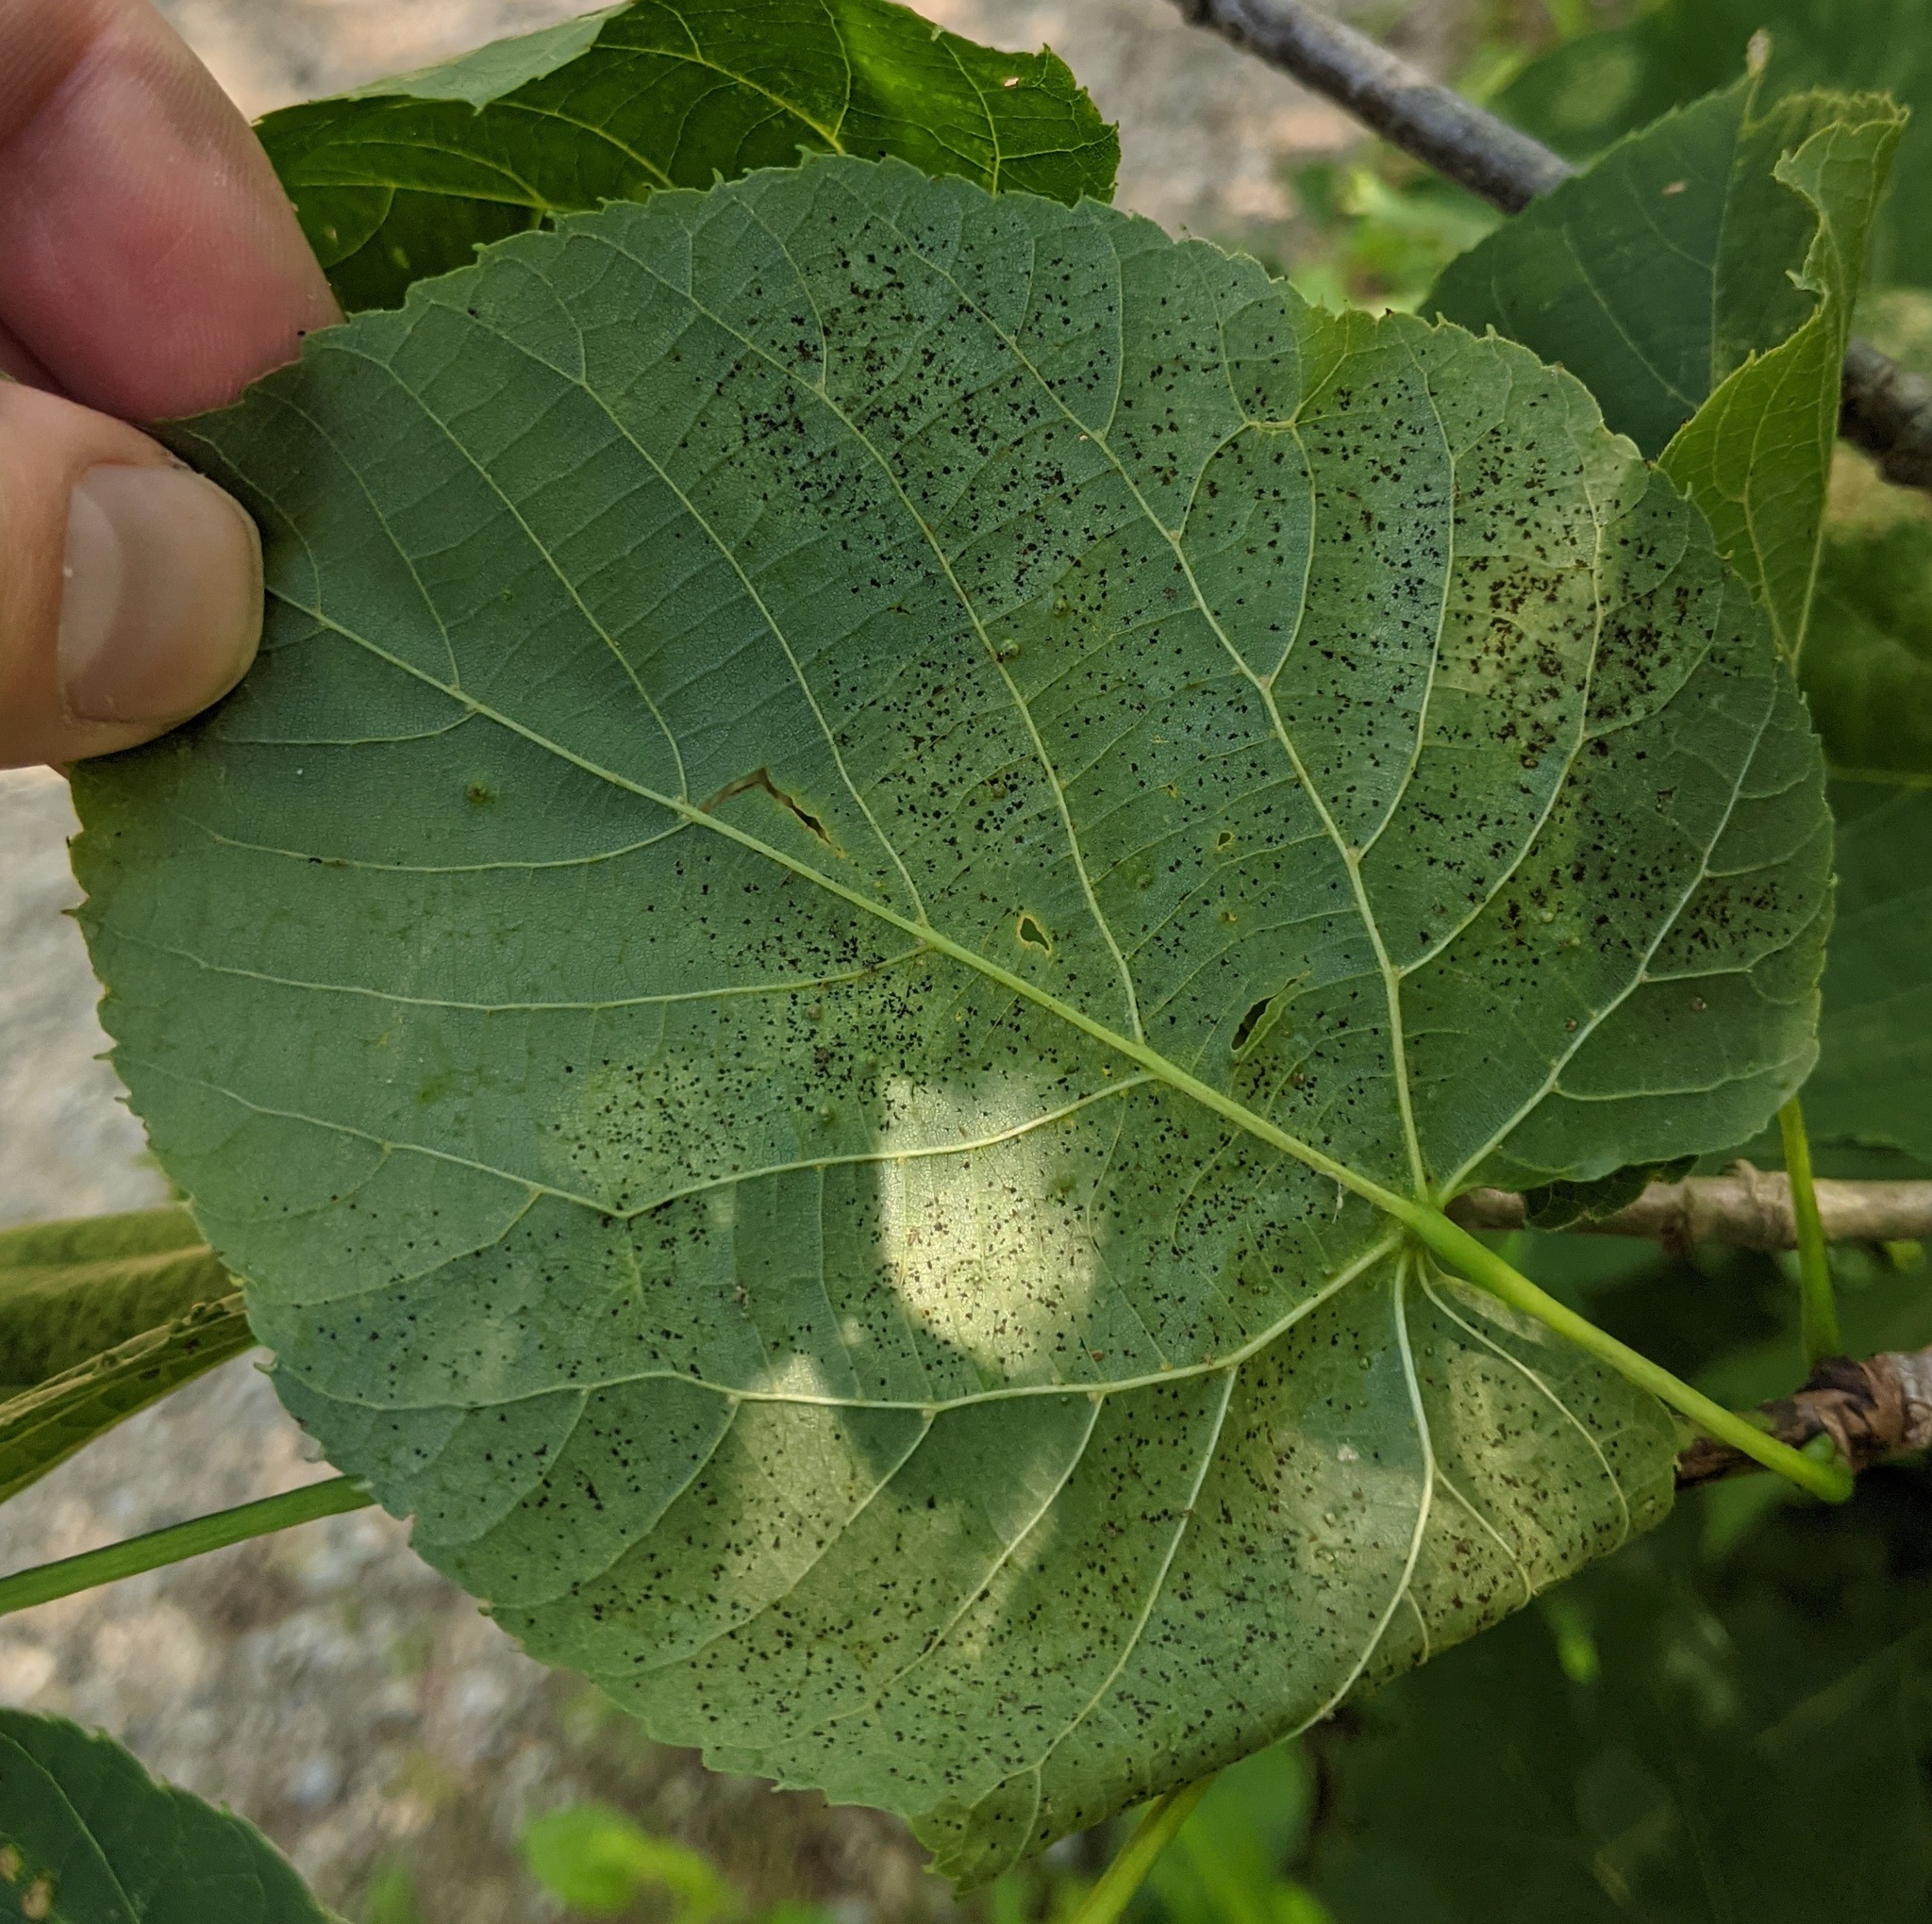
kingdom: Animalia
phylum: Arthropoda
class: Insecta
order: Hemiptera
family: Tingidae
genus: Gargaphia
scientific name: Gargaphia tiliae
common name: Basswood lace bug
